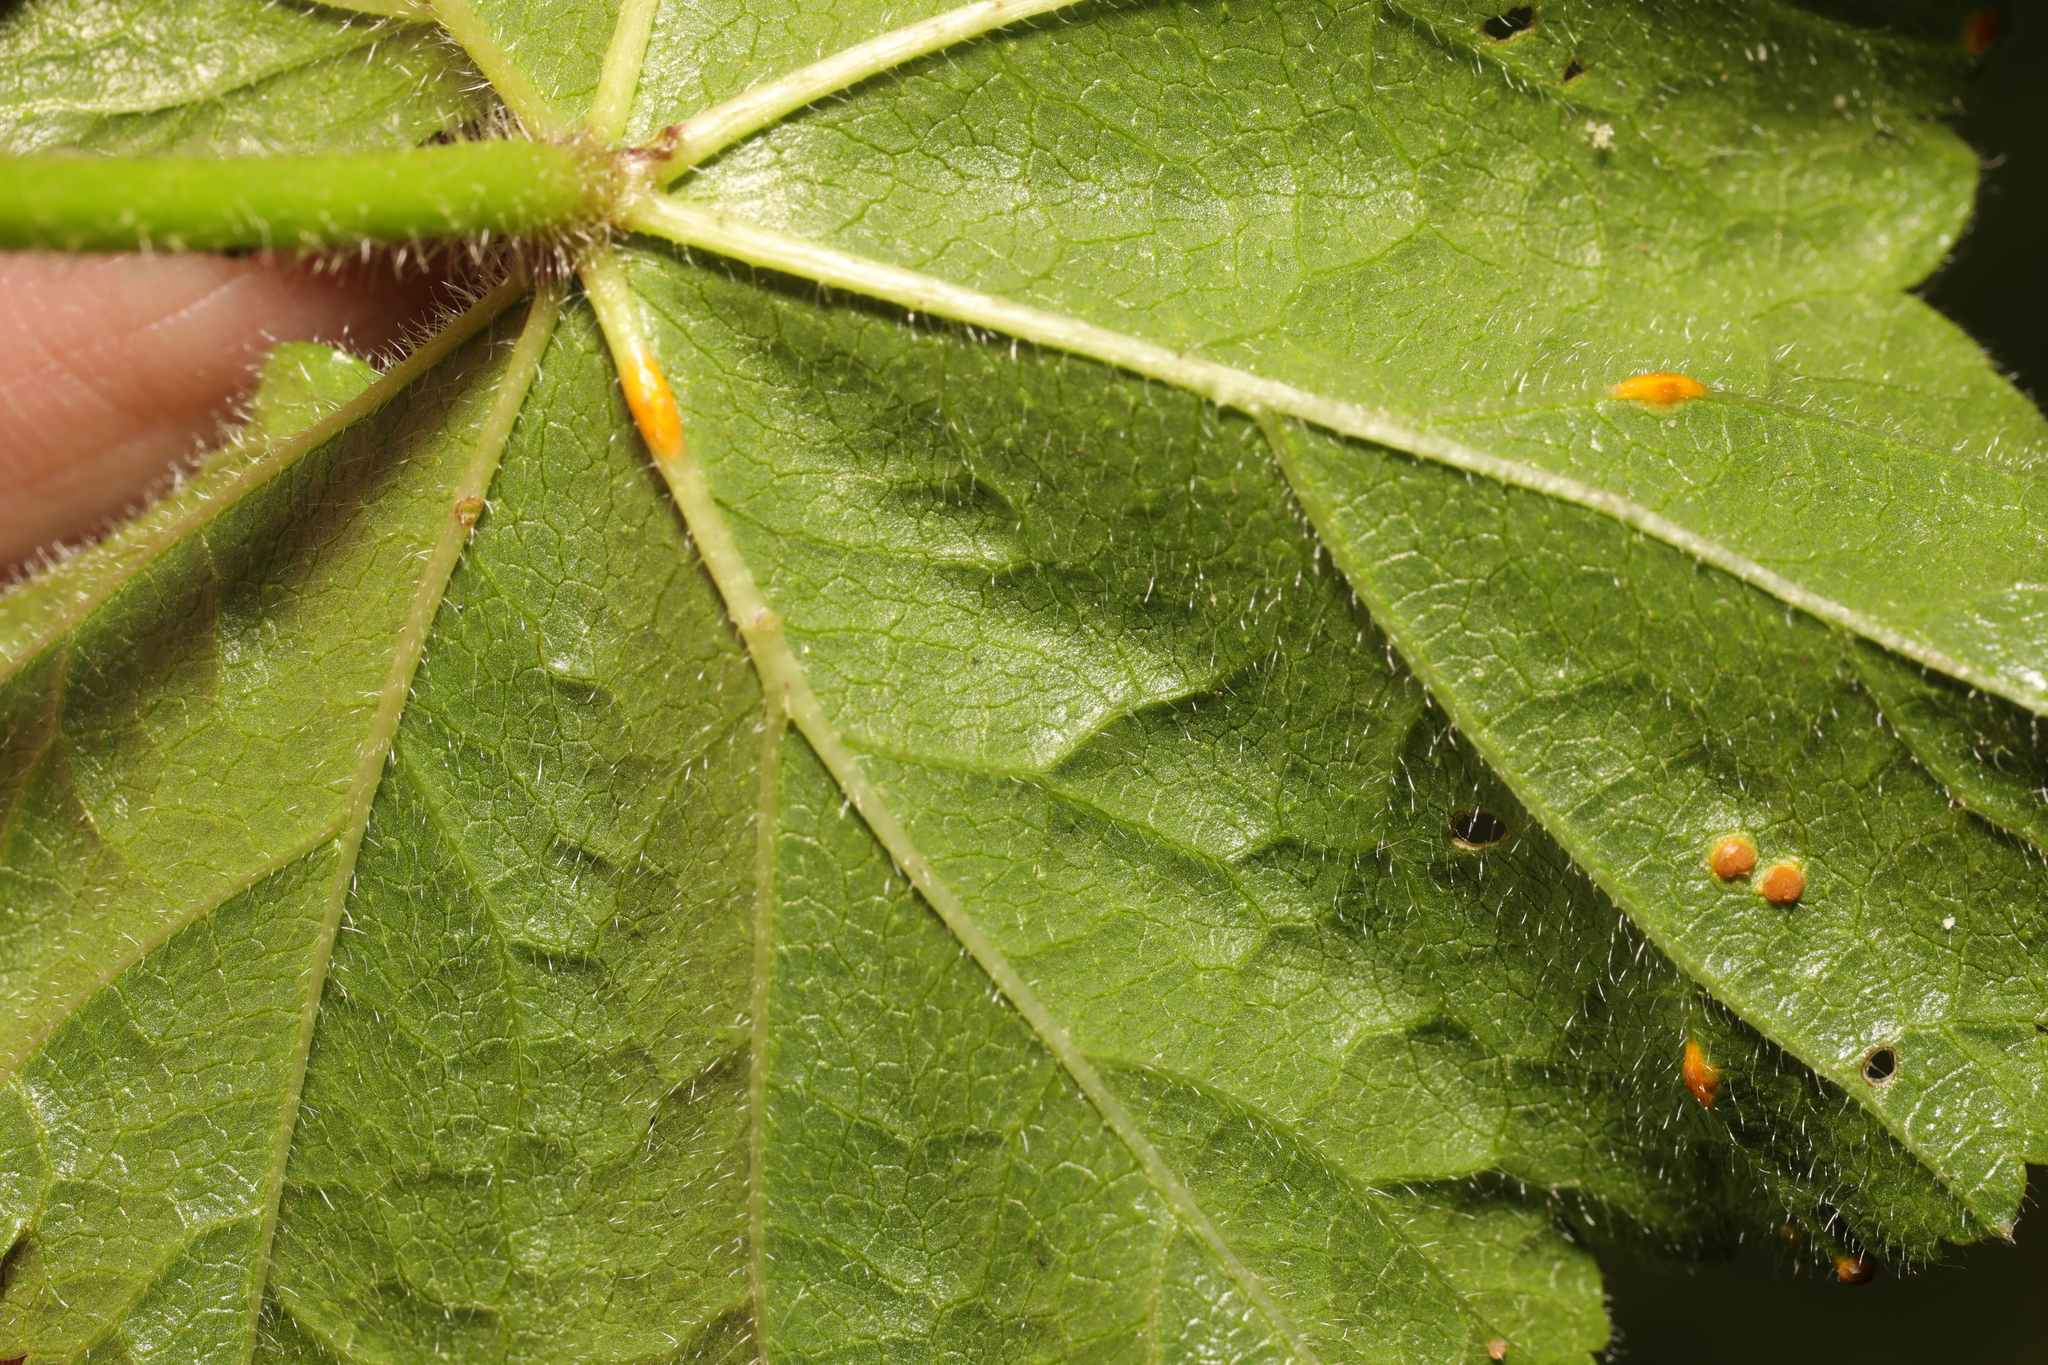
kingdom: Fungi
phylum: Basidiomycota
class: Pucciniomycetes
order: Pucciniales
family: Pucciniaceae
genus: Puccinia
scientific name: Puccinia malvacearum
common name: Hollyhock rust
